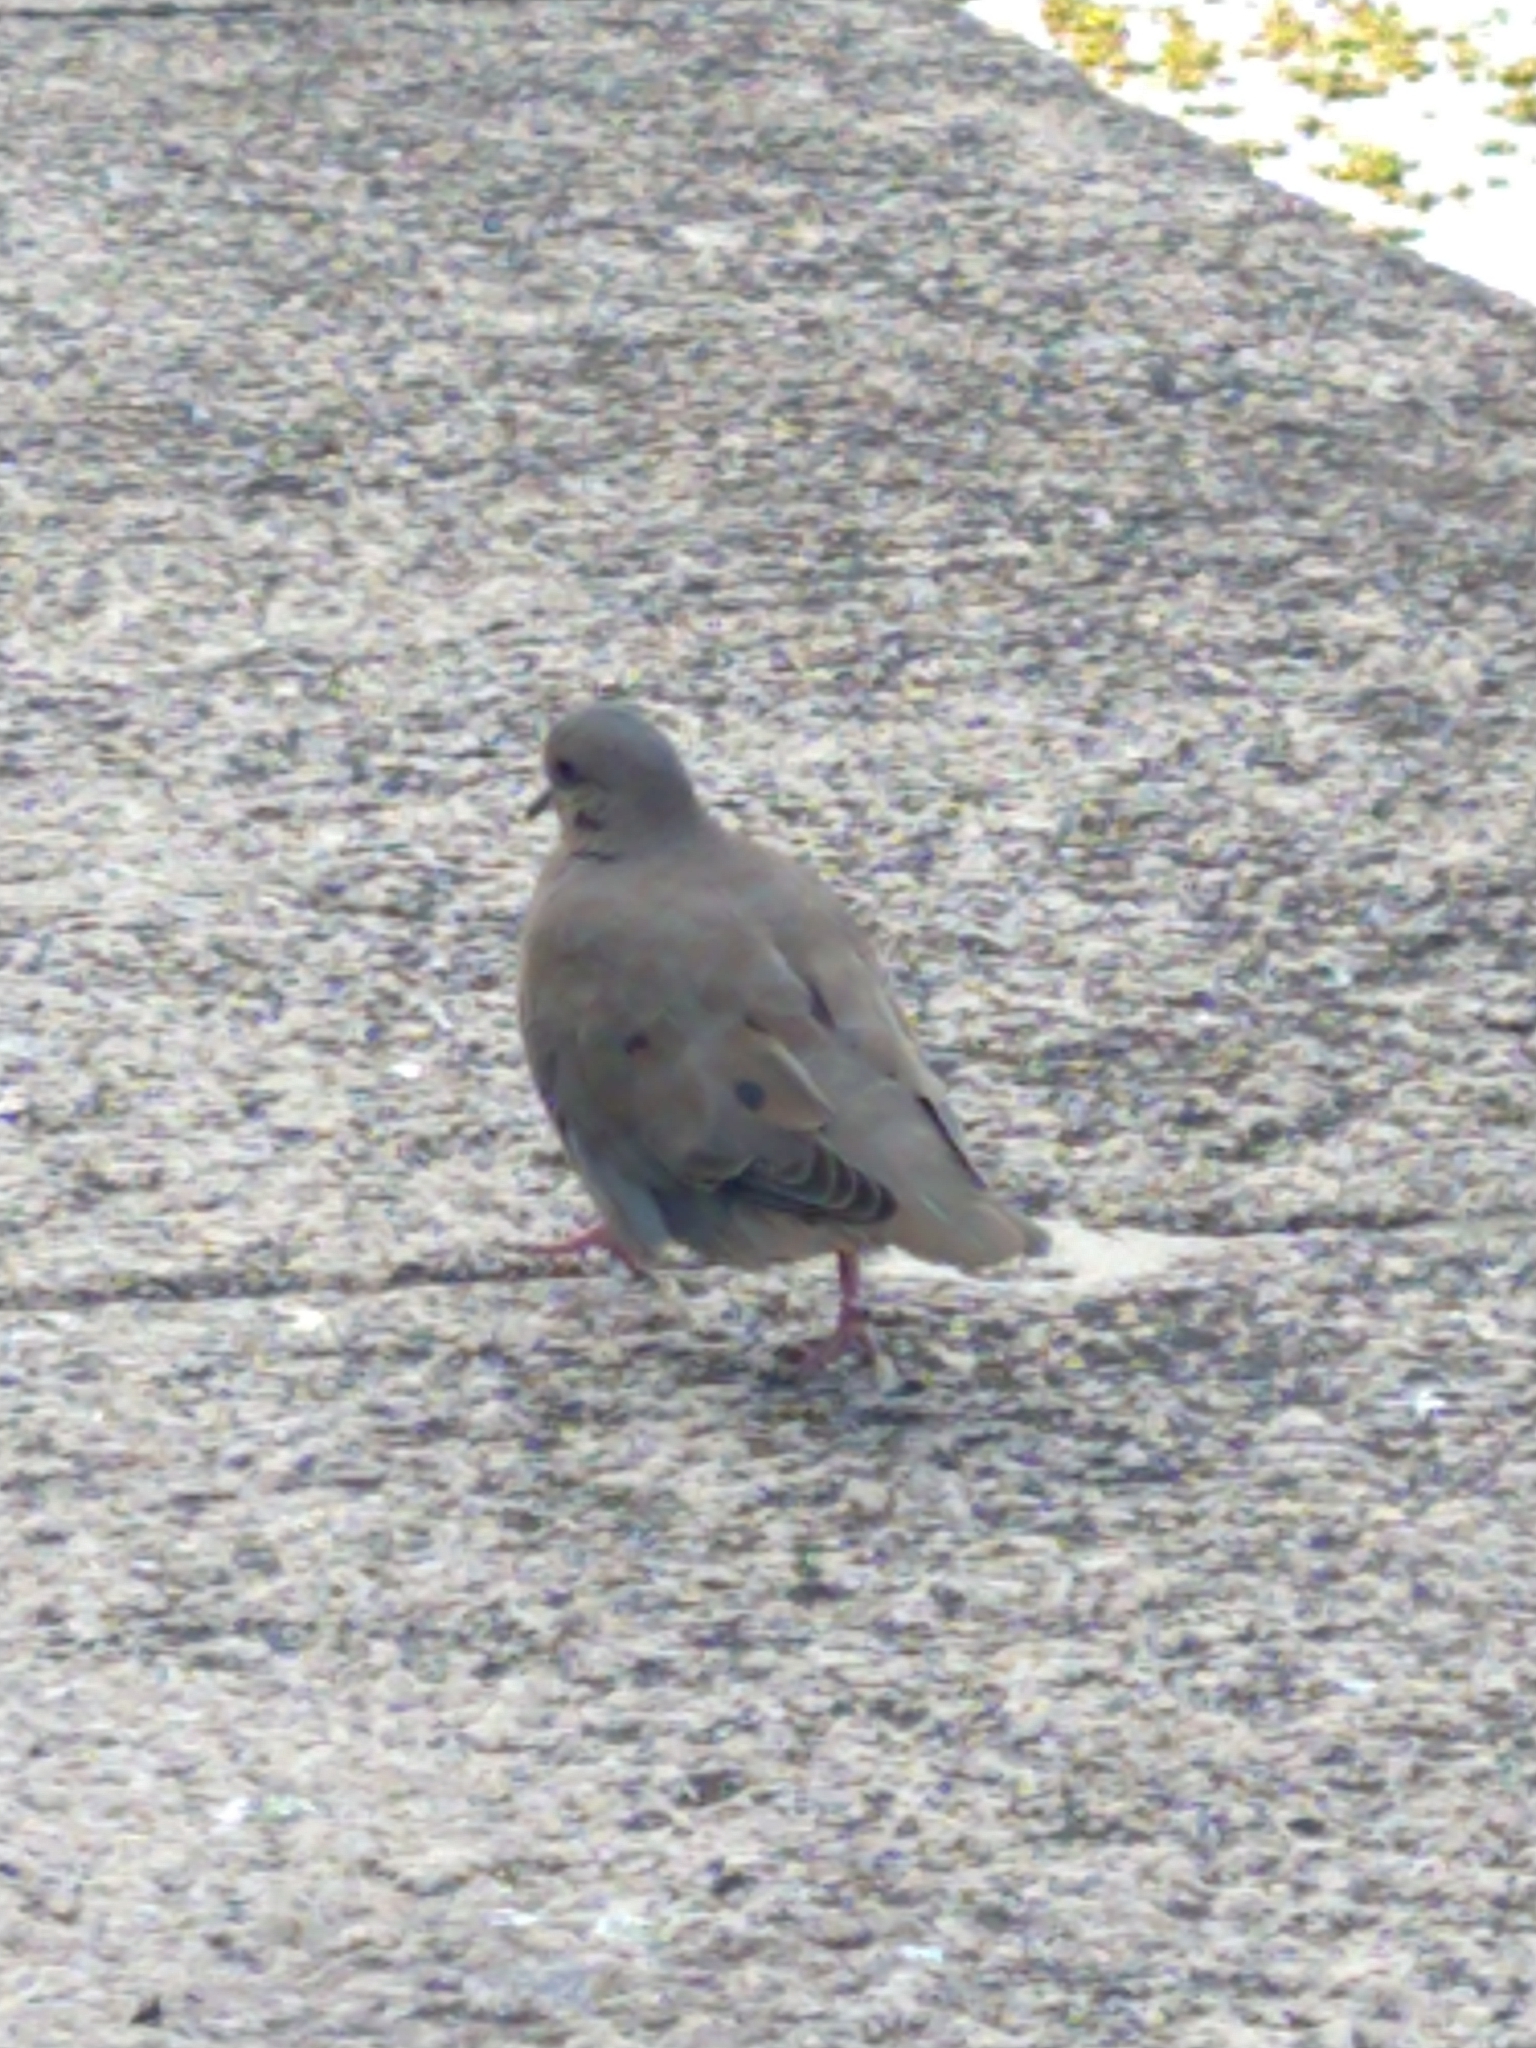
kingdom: Animalia
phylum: Chordata
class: Aves
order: Columbiformes
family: Columbidae
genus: Zenaida
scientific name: Zenaida auriculata
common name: Eared dove
